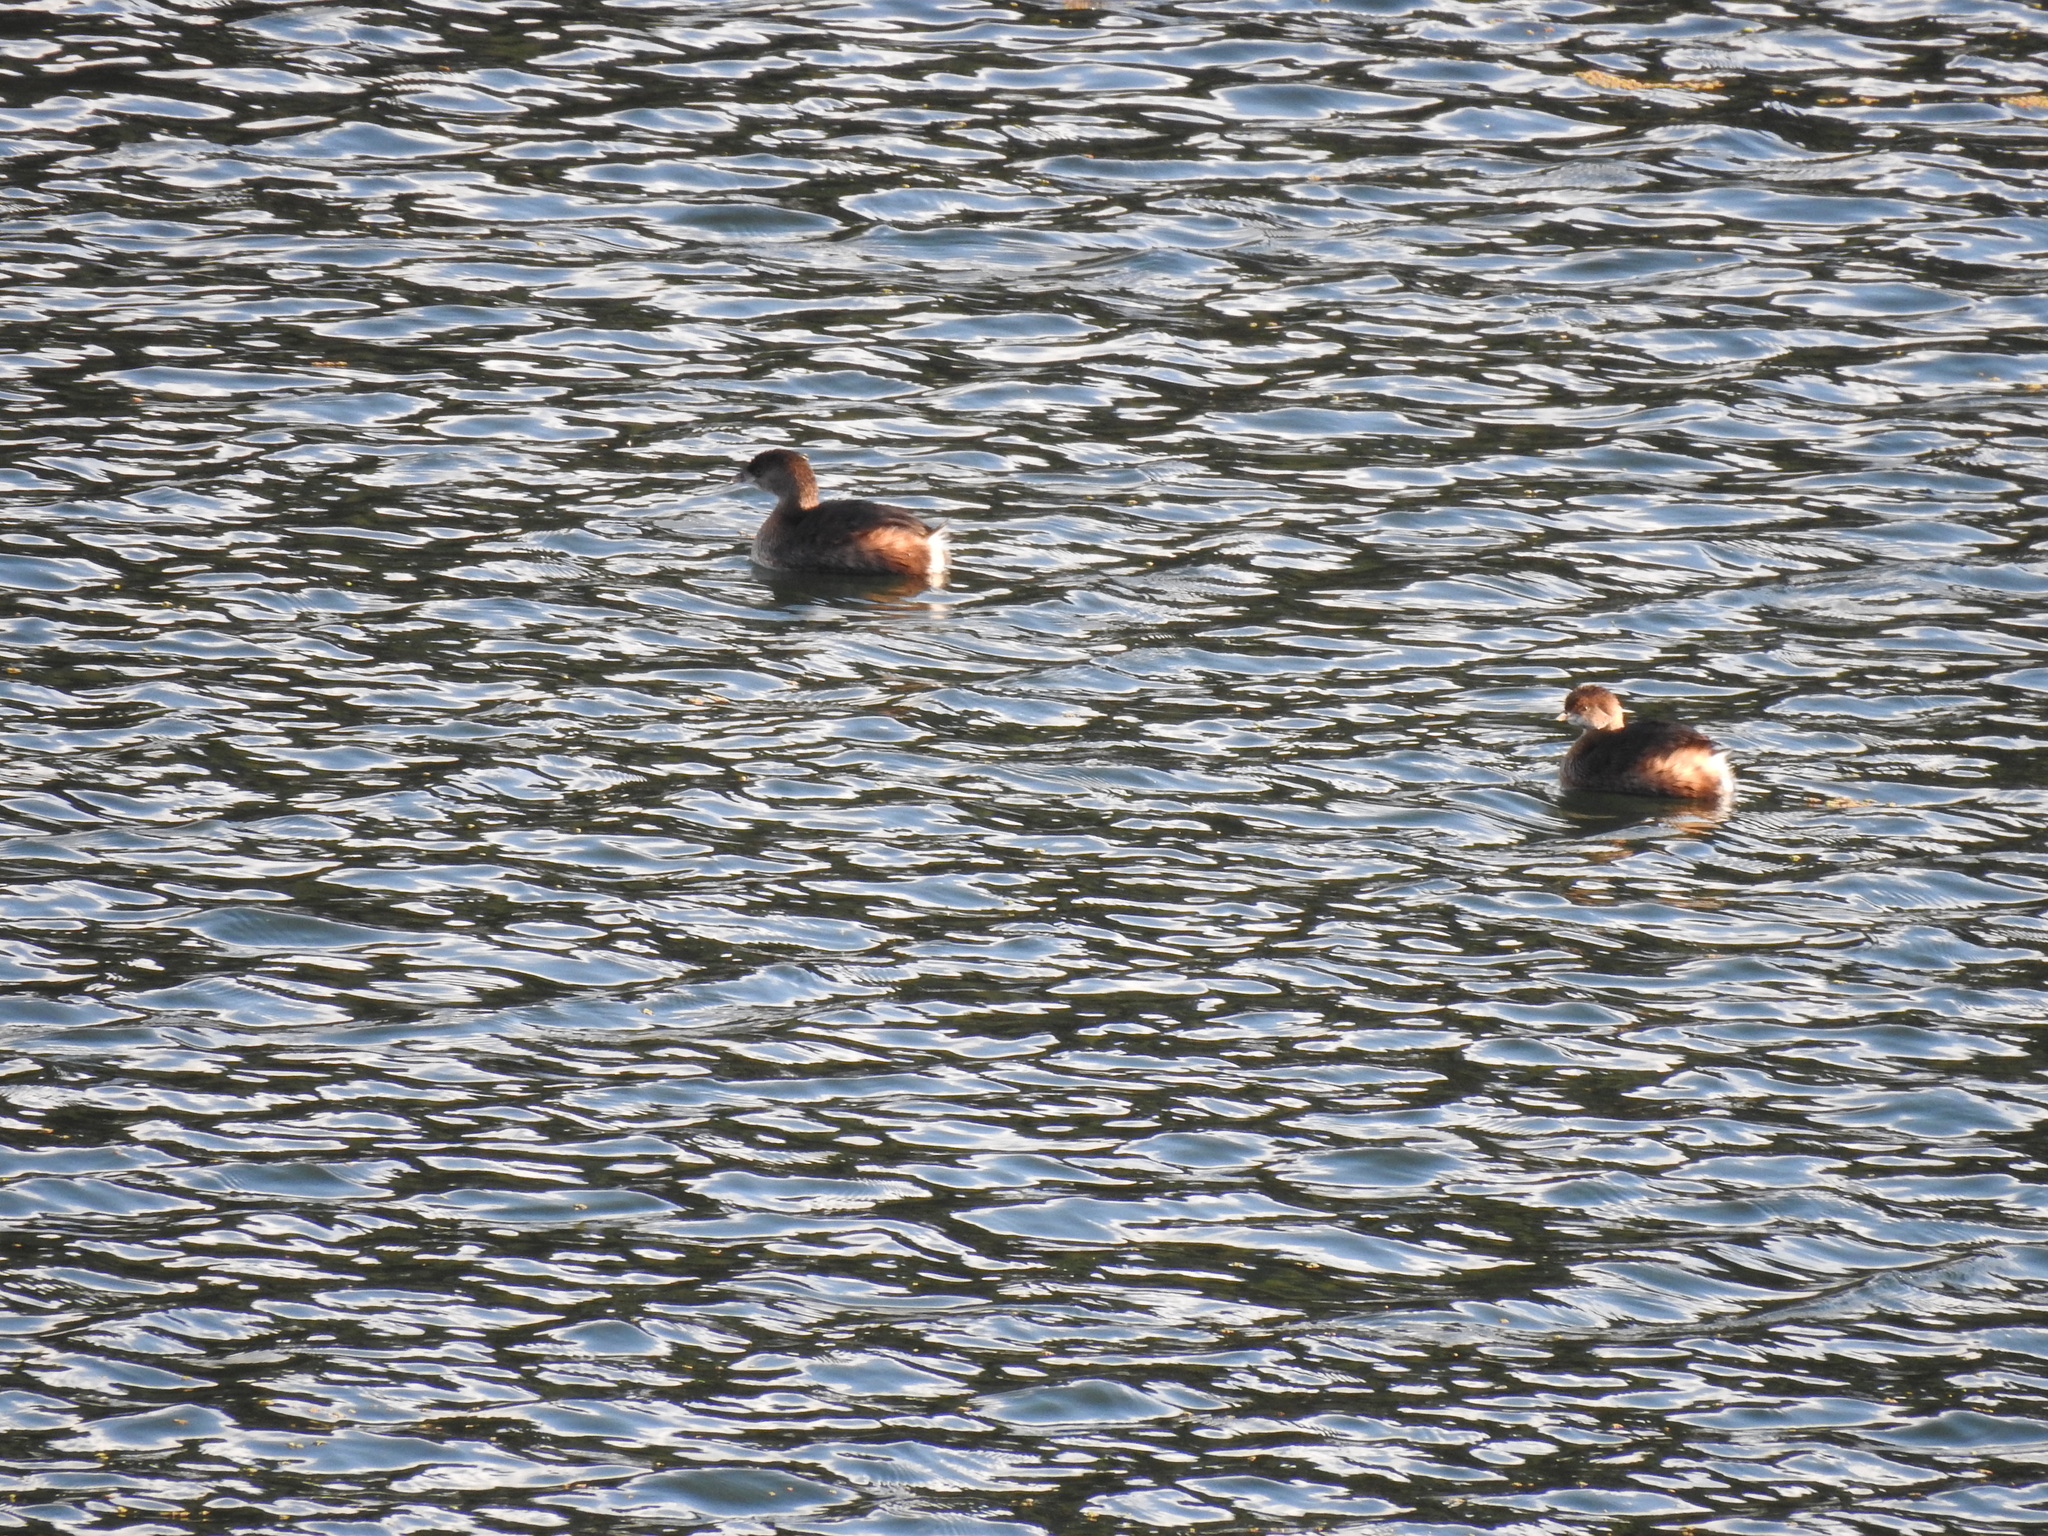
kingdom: Animalia
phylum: Chordata
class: Aves
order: Podicipediformes
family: Podicipedidae
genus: Podilymbus
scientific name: Podilymbus podiceps
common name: Pied-billed grebe
